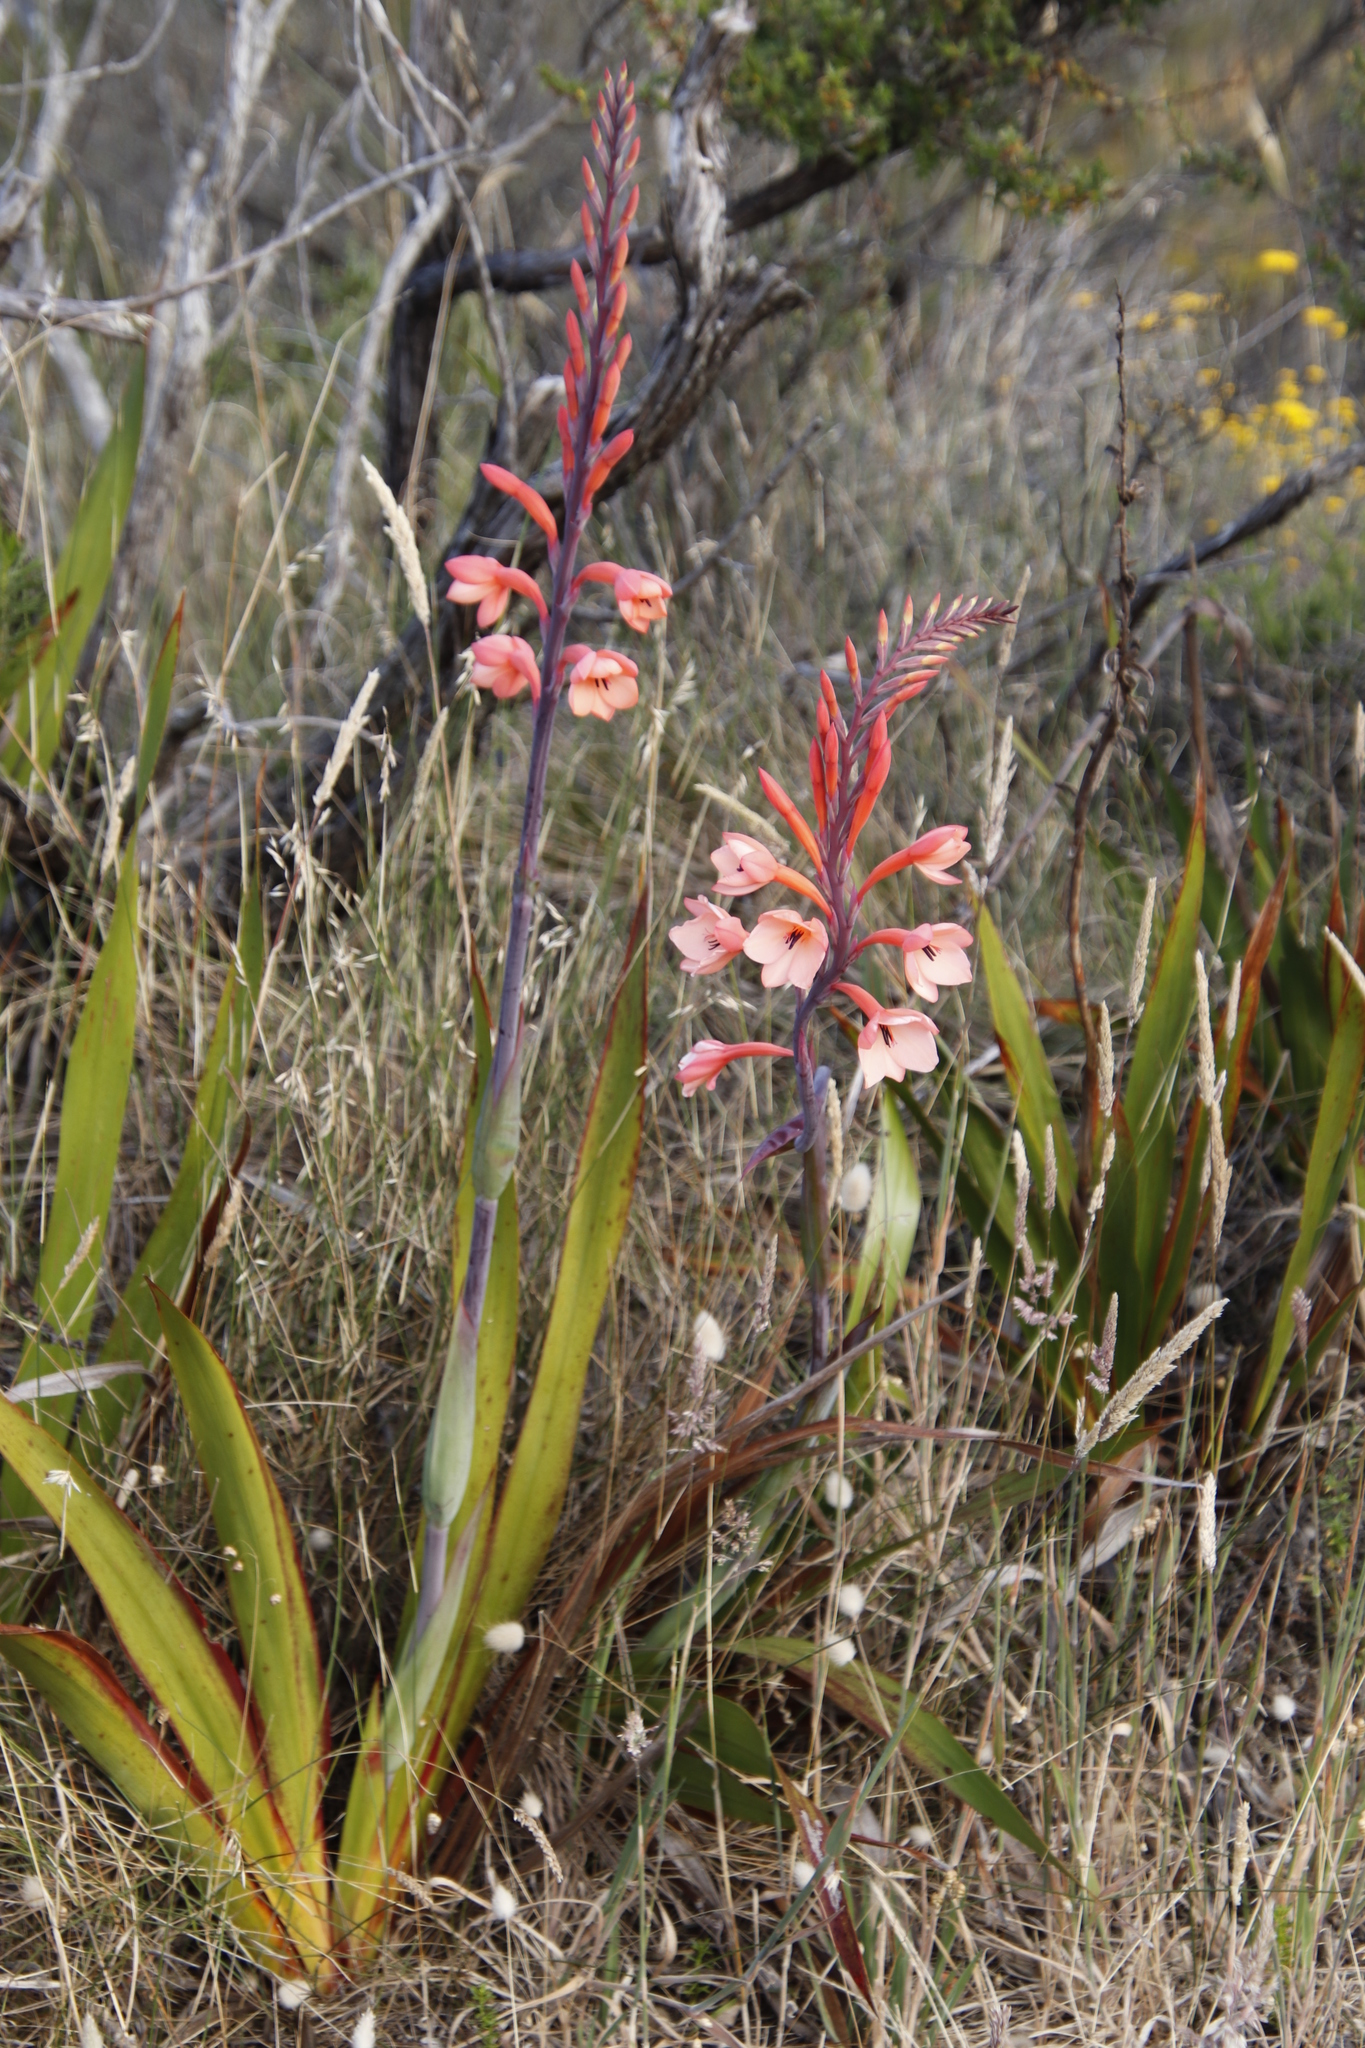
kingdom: Plantae
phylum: Tracheophyta
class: Liliopsida
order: Asparagales
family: Iridaceae
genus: Watsonia
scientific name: Watsonia tabularis
